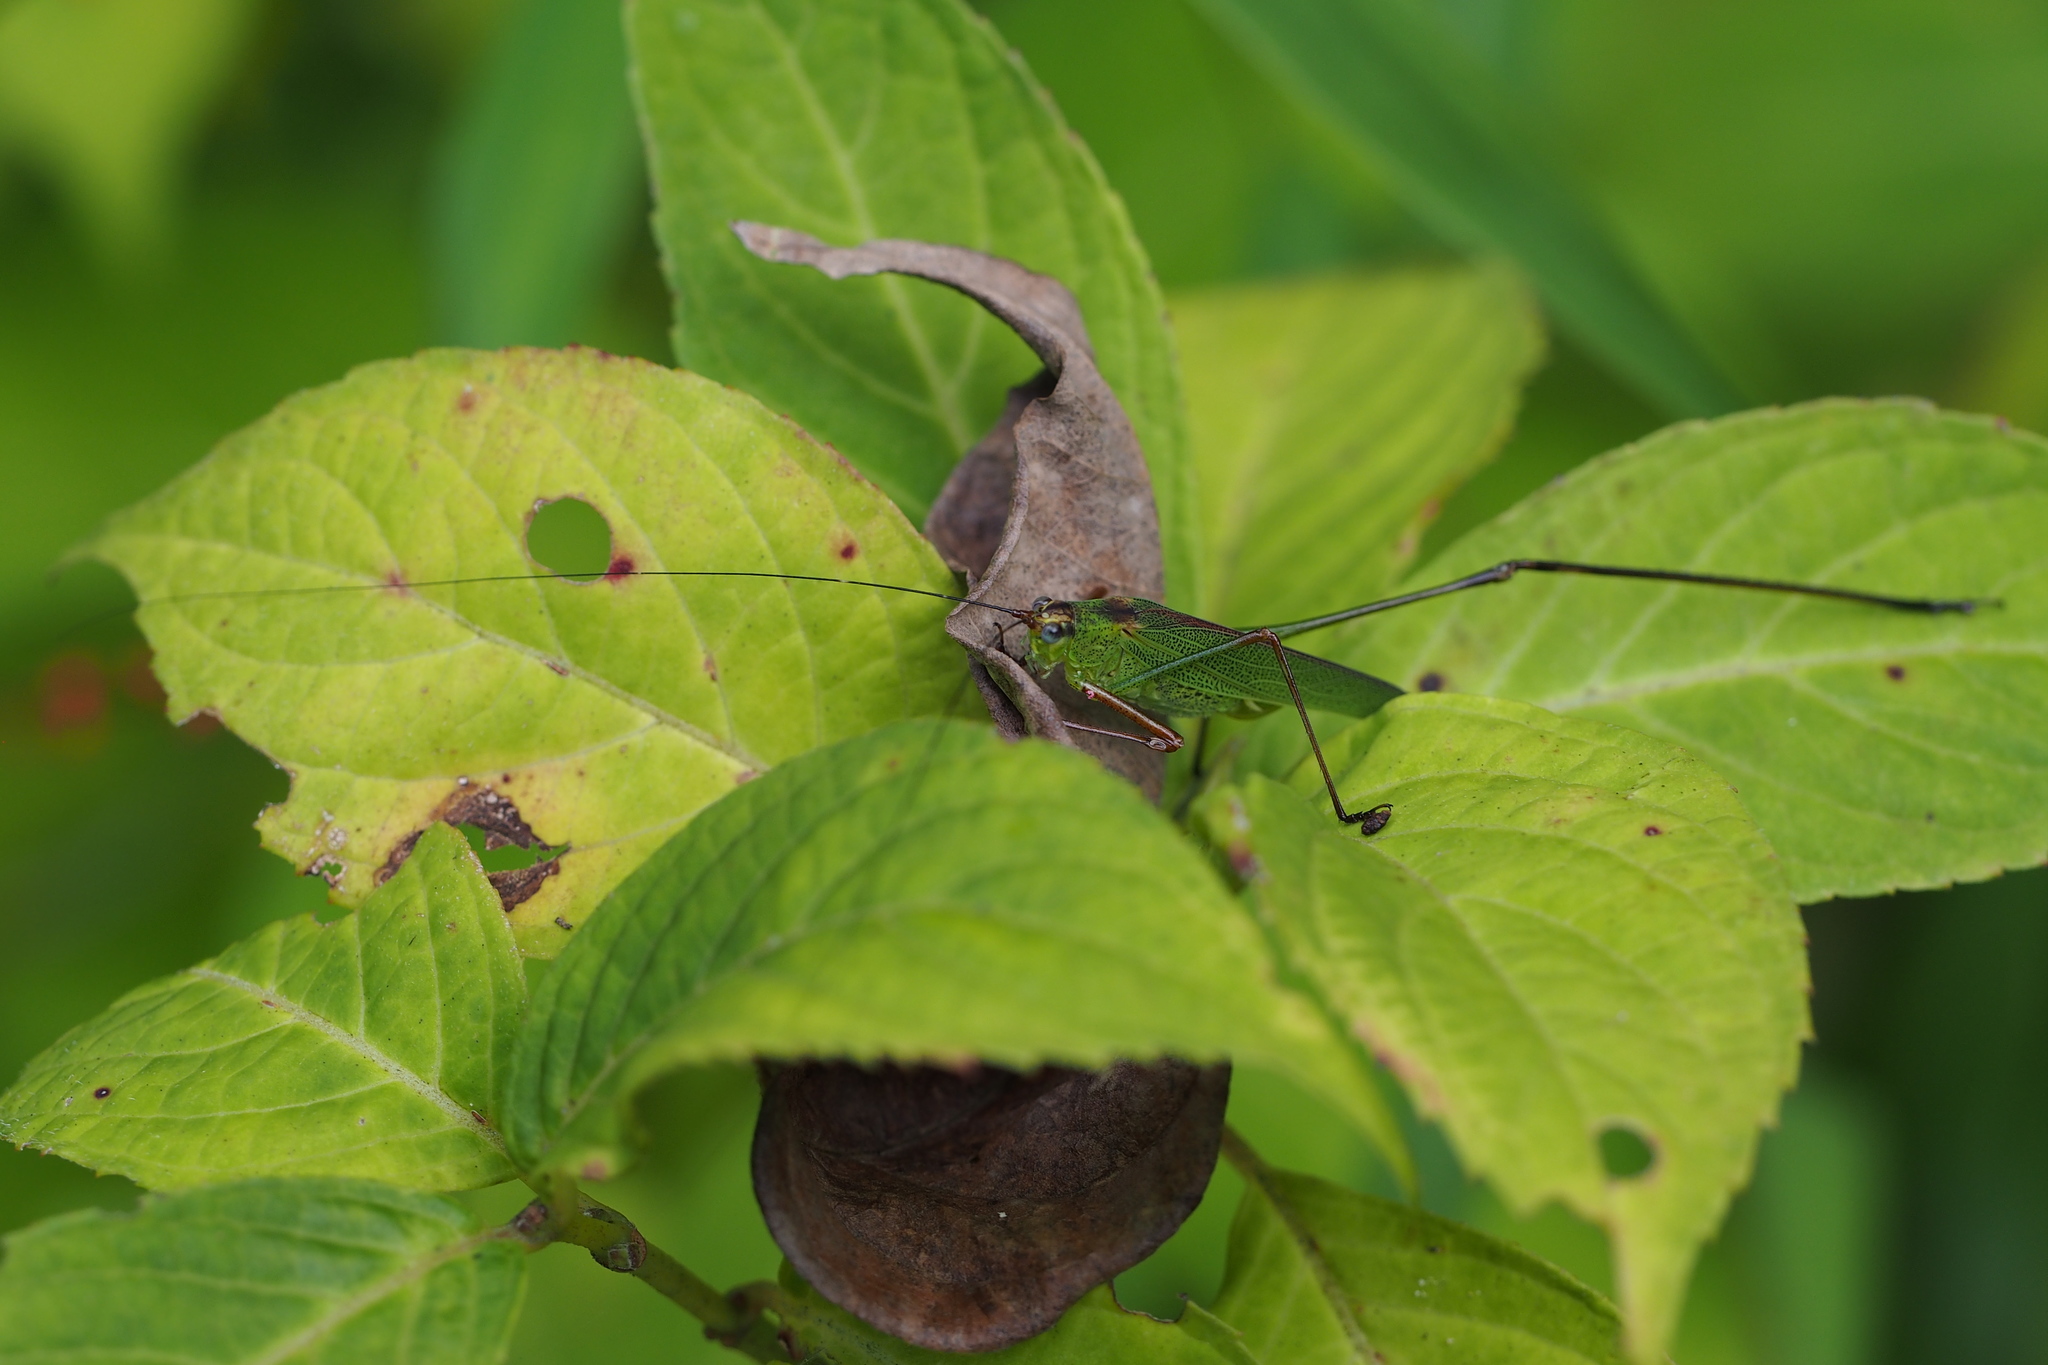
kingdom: Animalia
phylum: Arthropoda
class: Insecta
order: Orthoptera
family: Tettigoniidae
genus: Phaneroptera
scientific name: Phaneroptera nigroantennata
